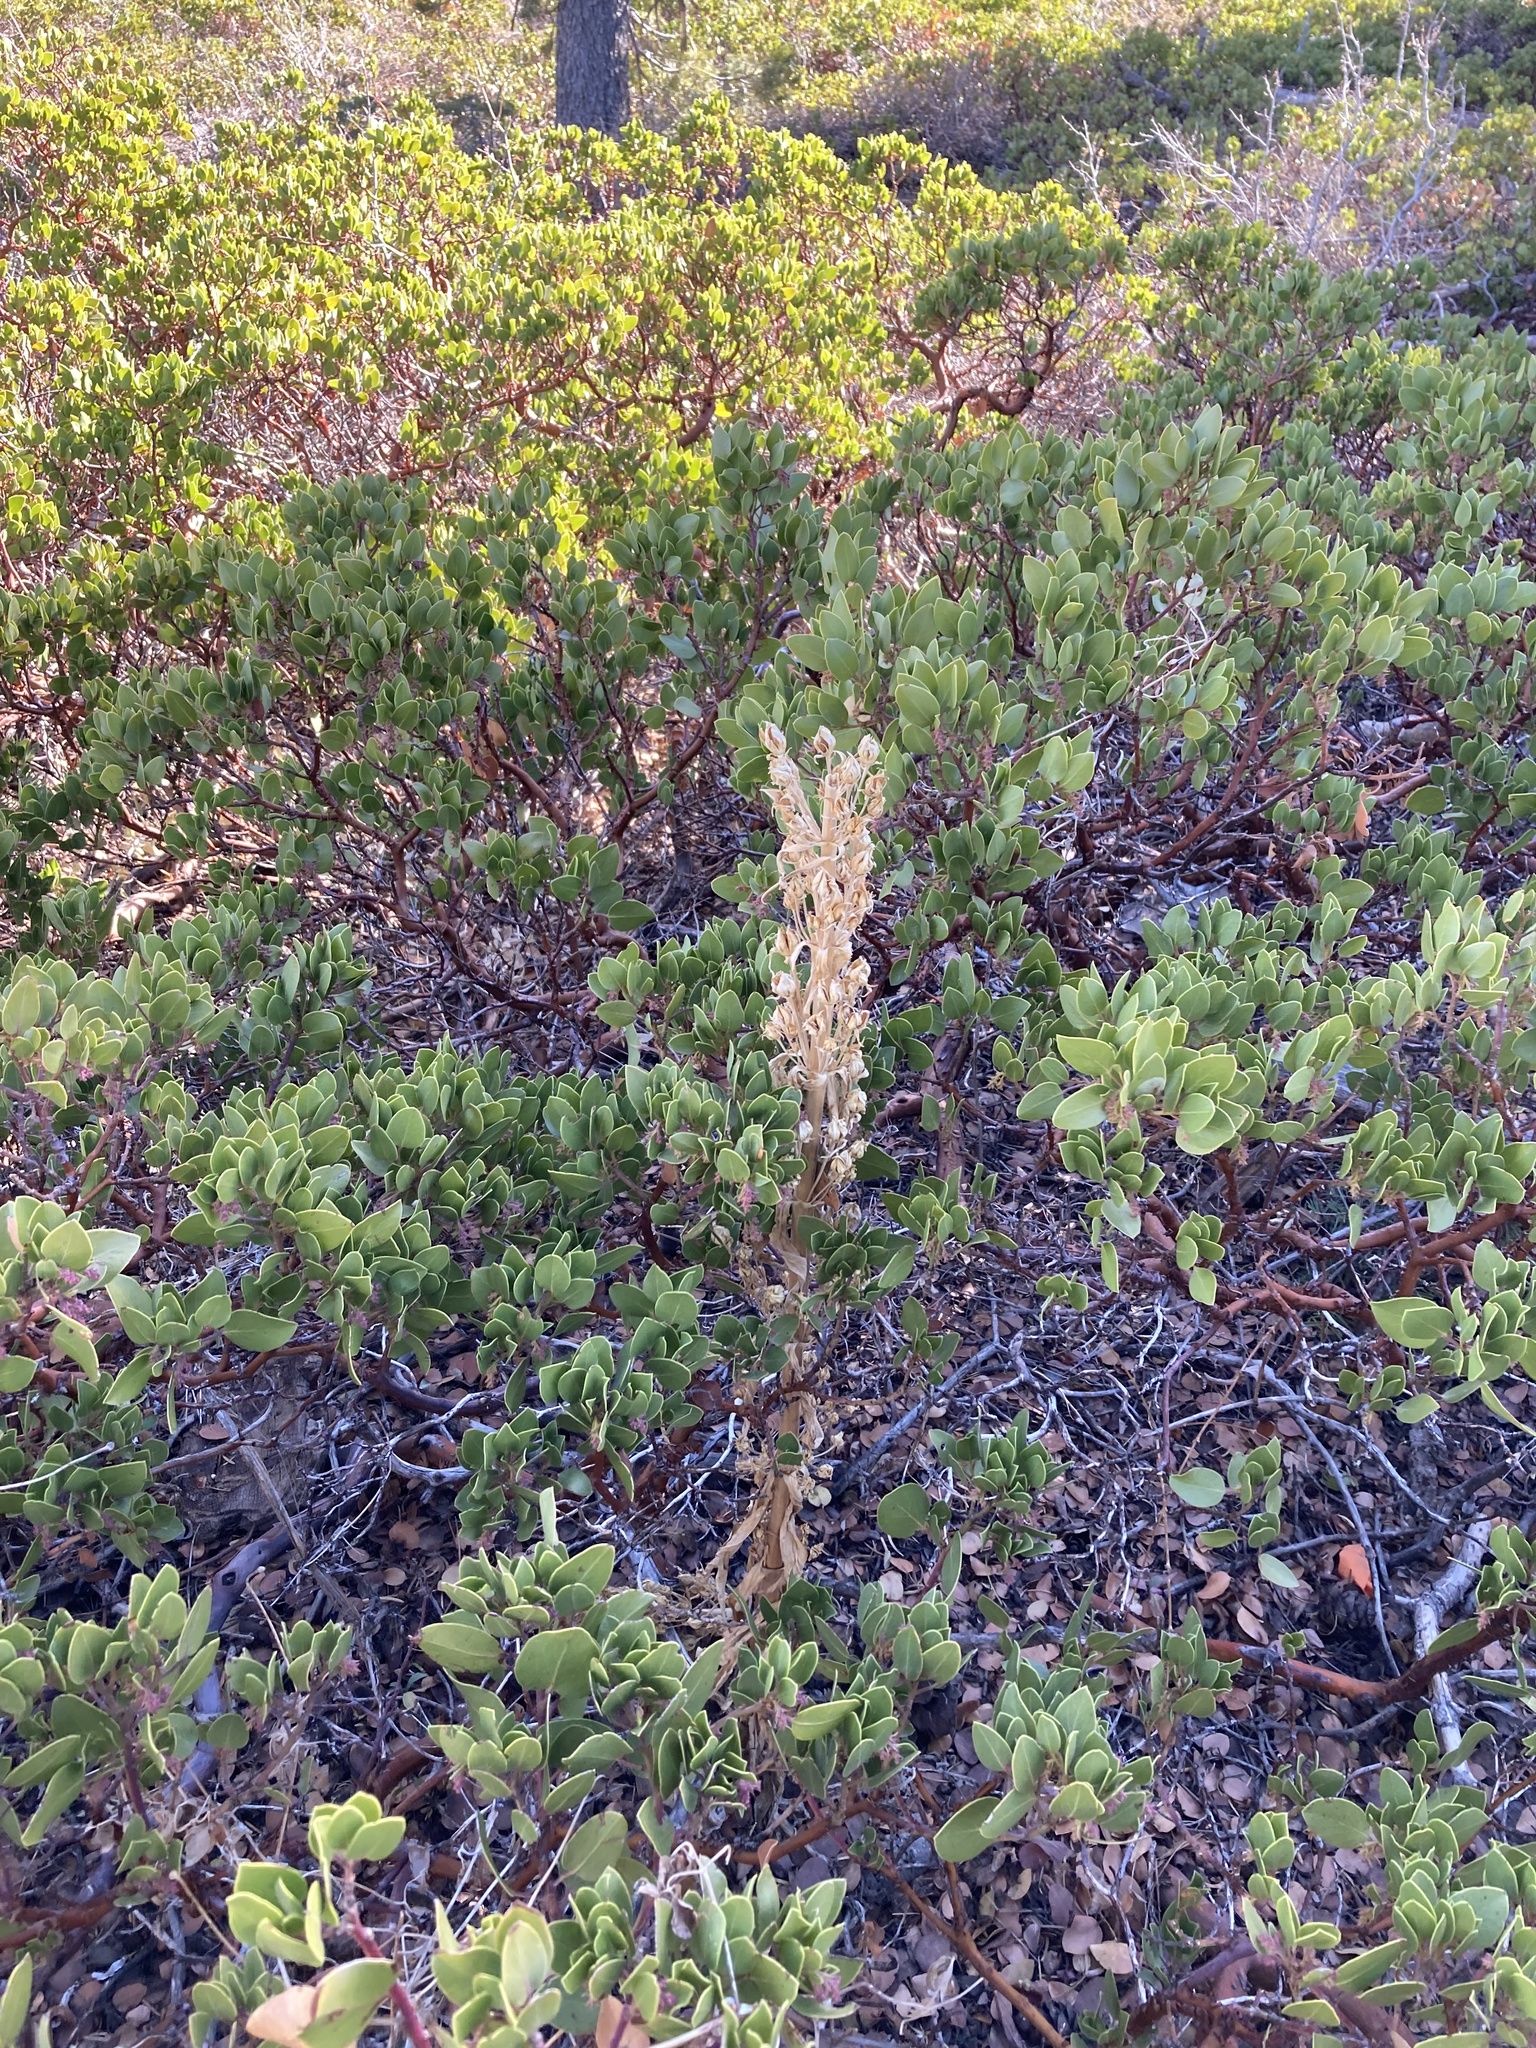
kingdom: Plantae
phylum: Tracheophyta
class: Magnoliopsida
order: Gentianales
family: Gentianaceae
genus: Frasera
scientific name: Frasera speciosa
